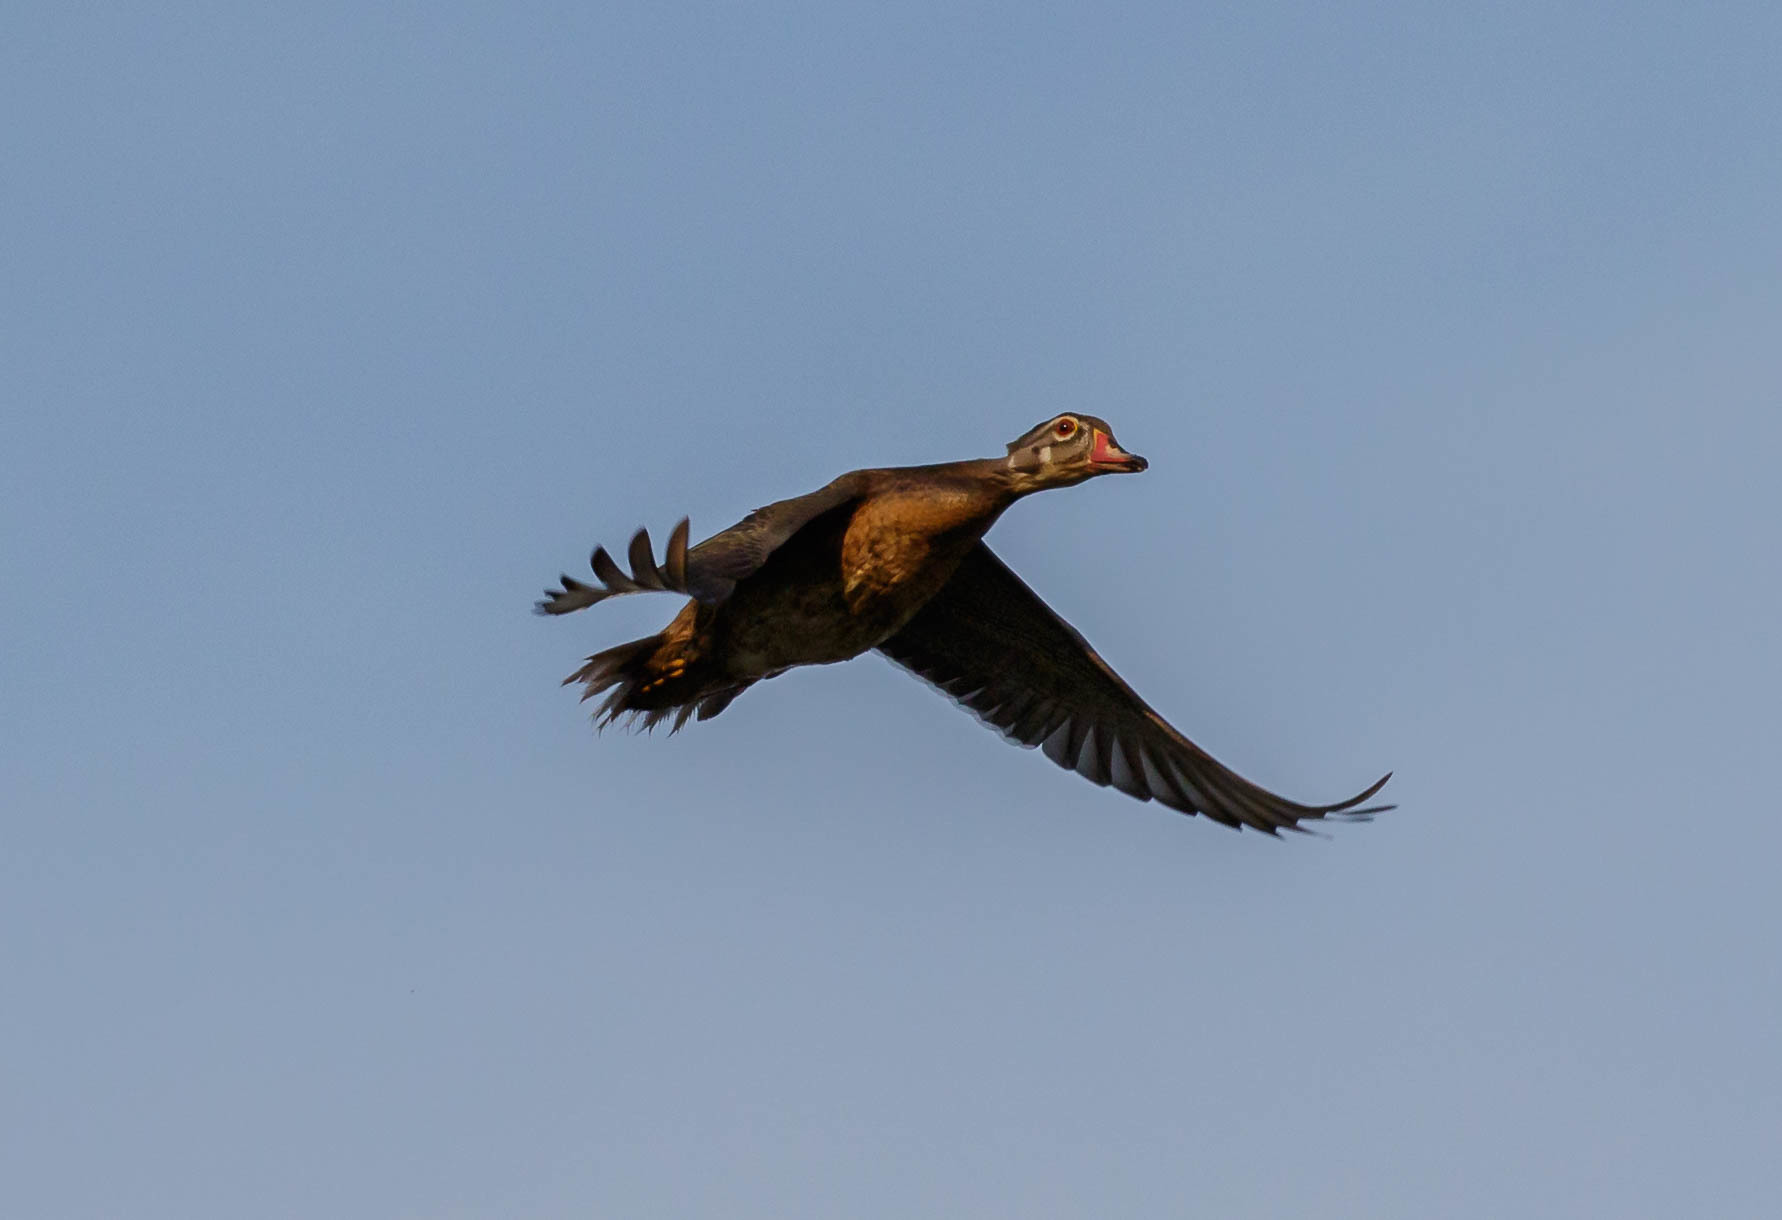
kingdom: Animalia
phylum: Chordata
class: Aves
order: Anseriformes
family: Anatidae
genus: Aix
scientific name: Aix sponsa
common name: Wood duck
